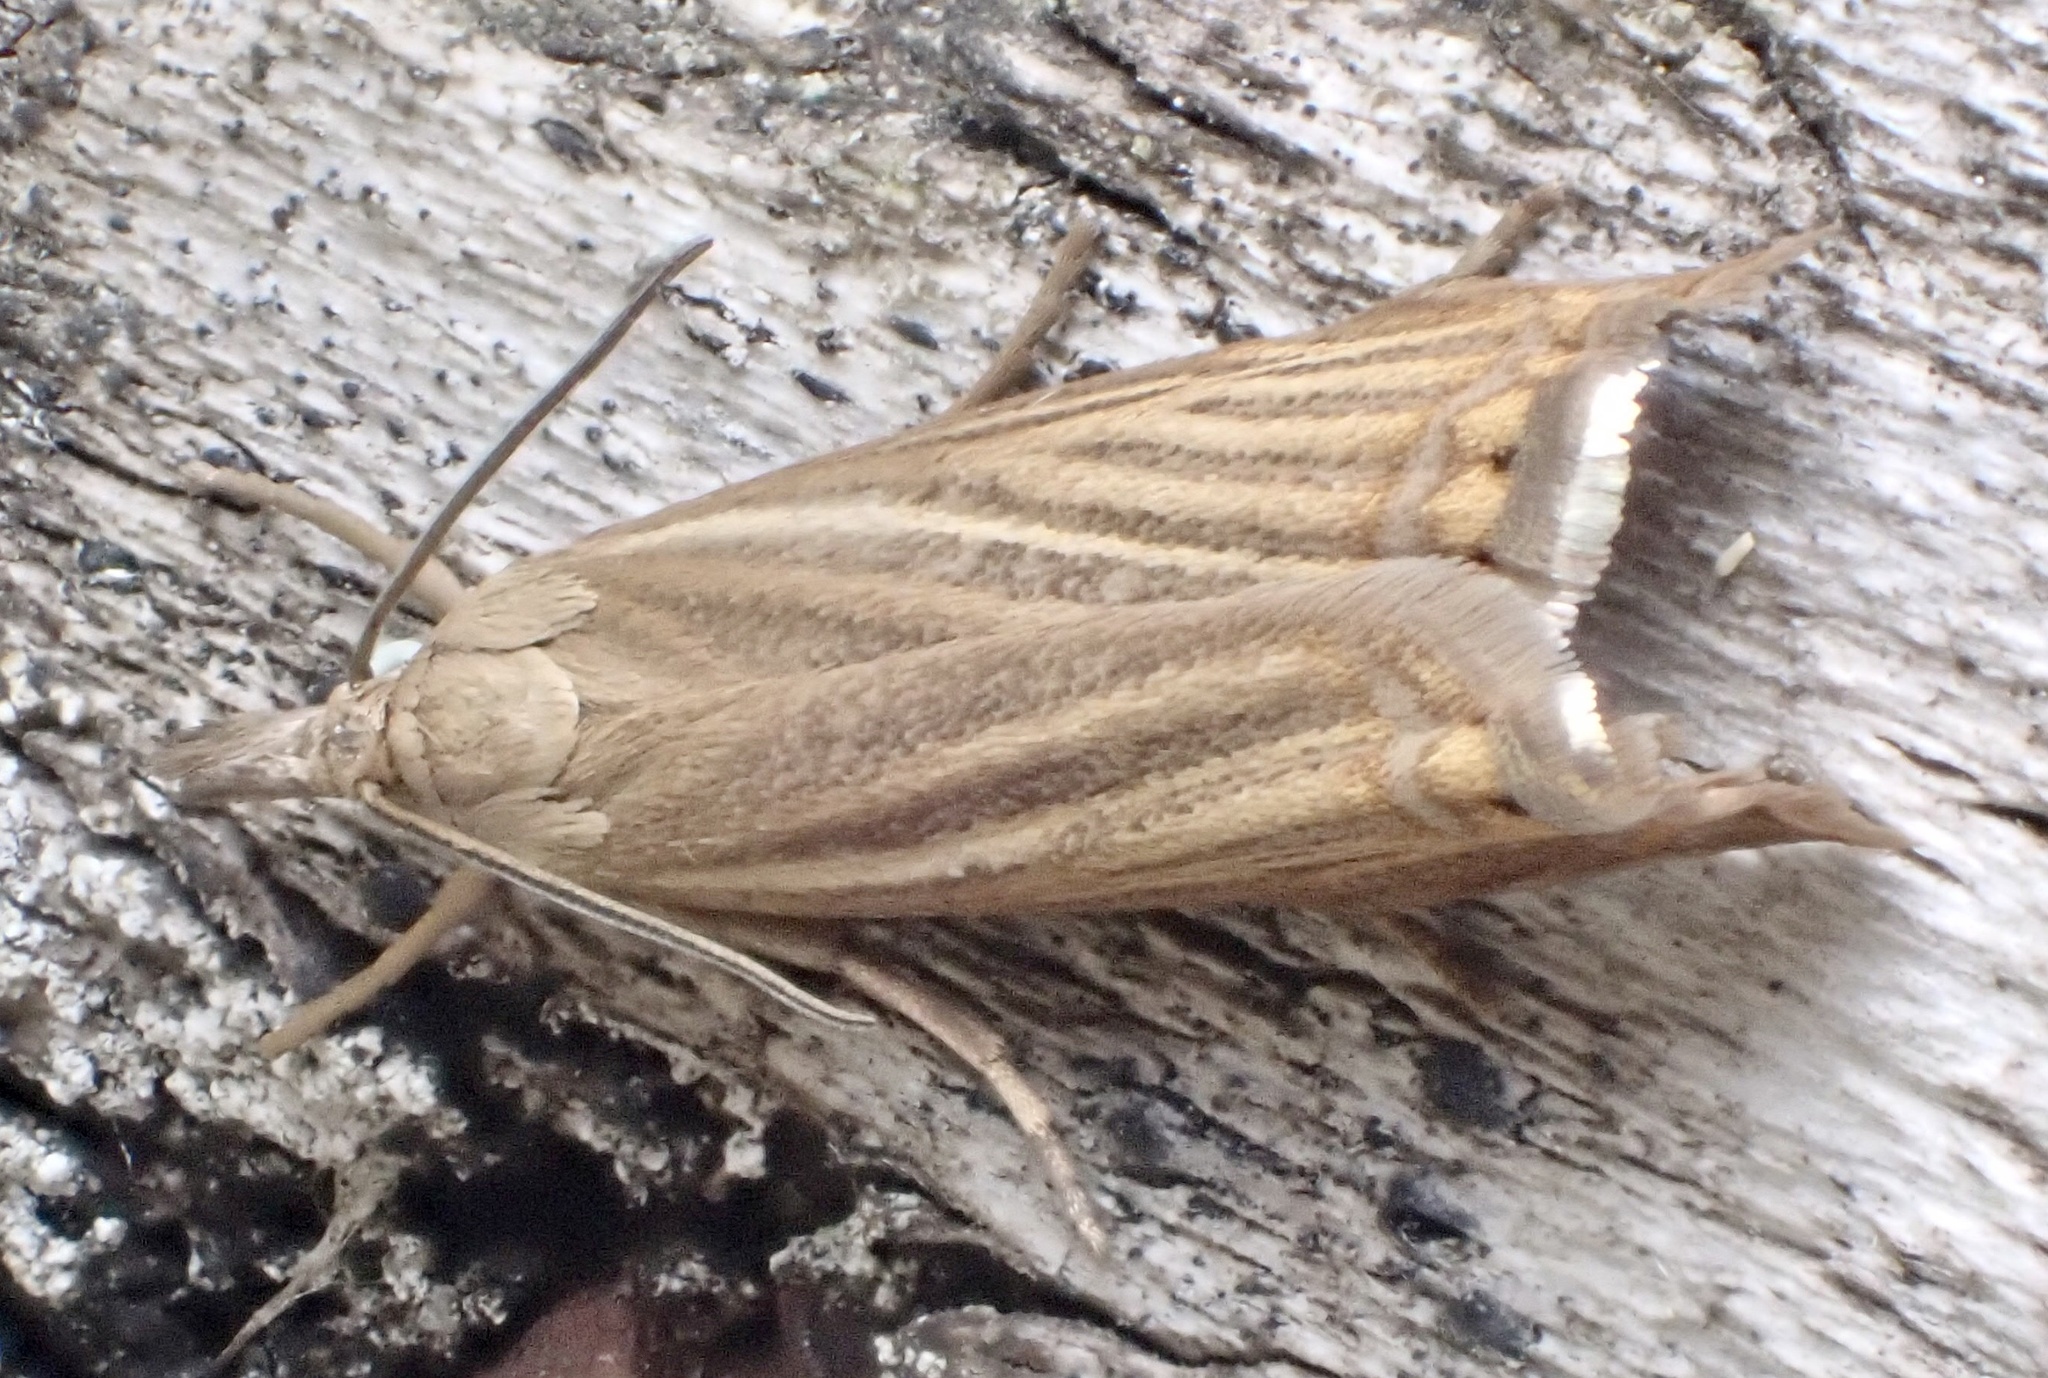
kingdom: Animalia
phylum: Arthropoda
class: Insecta
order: Lepidoptera
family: Crambidae
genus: Chrysoteuchia
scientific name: Chrysoteuchia culmella
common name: Garden grass-veneer
